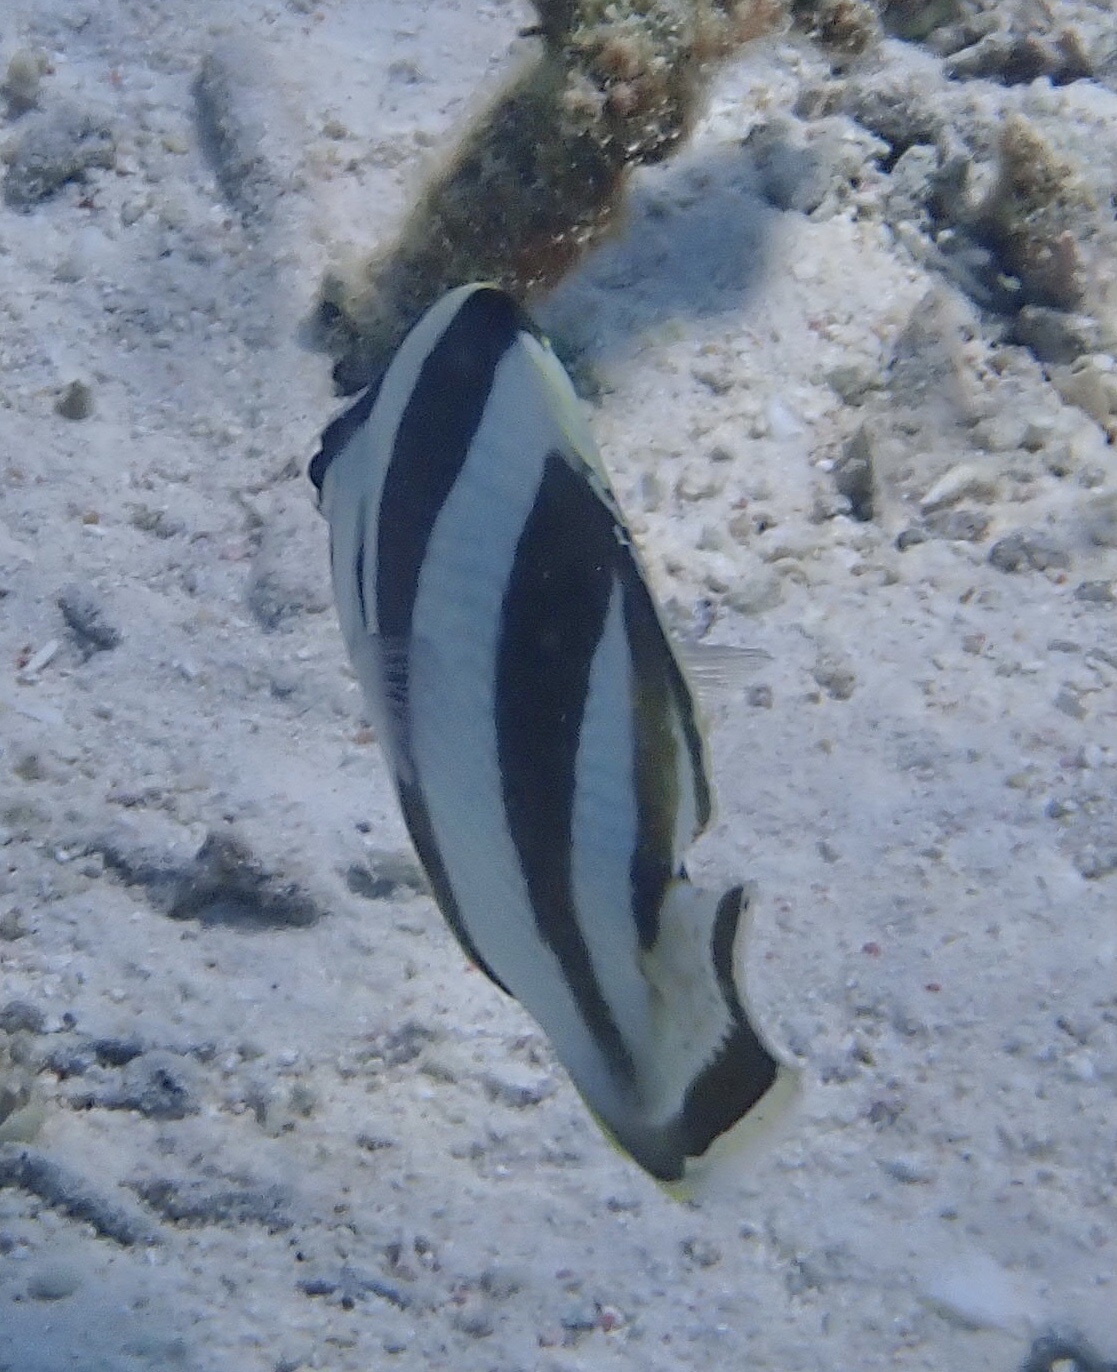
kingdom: Animalia
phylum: Chordata
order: Perciformes
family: Chaetodontidae
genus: Chaetodon
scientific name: Chaetodon striatus
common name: Banded butterflyfish
